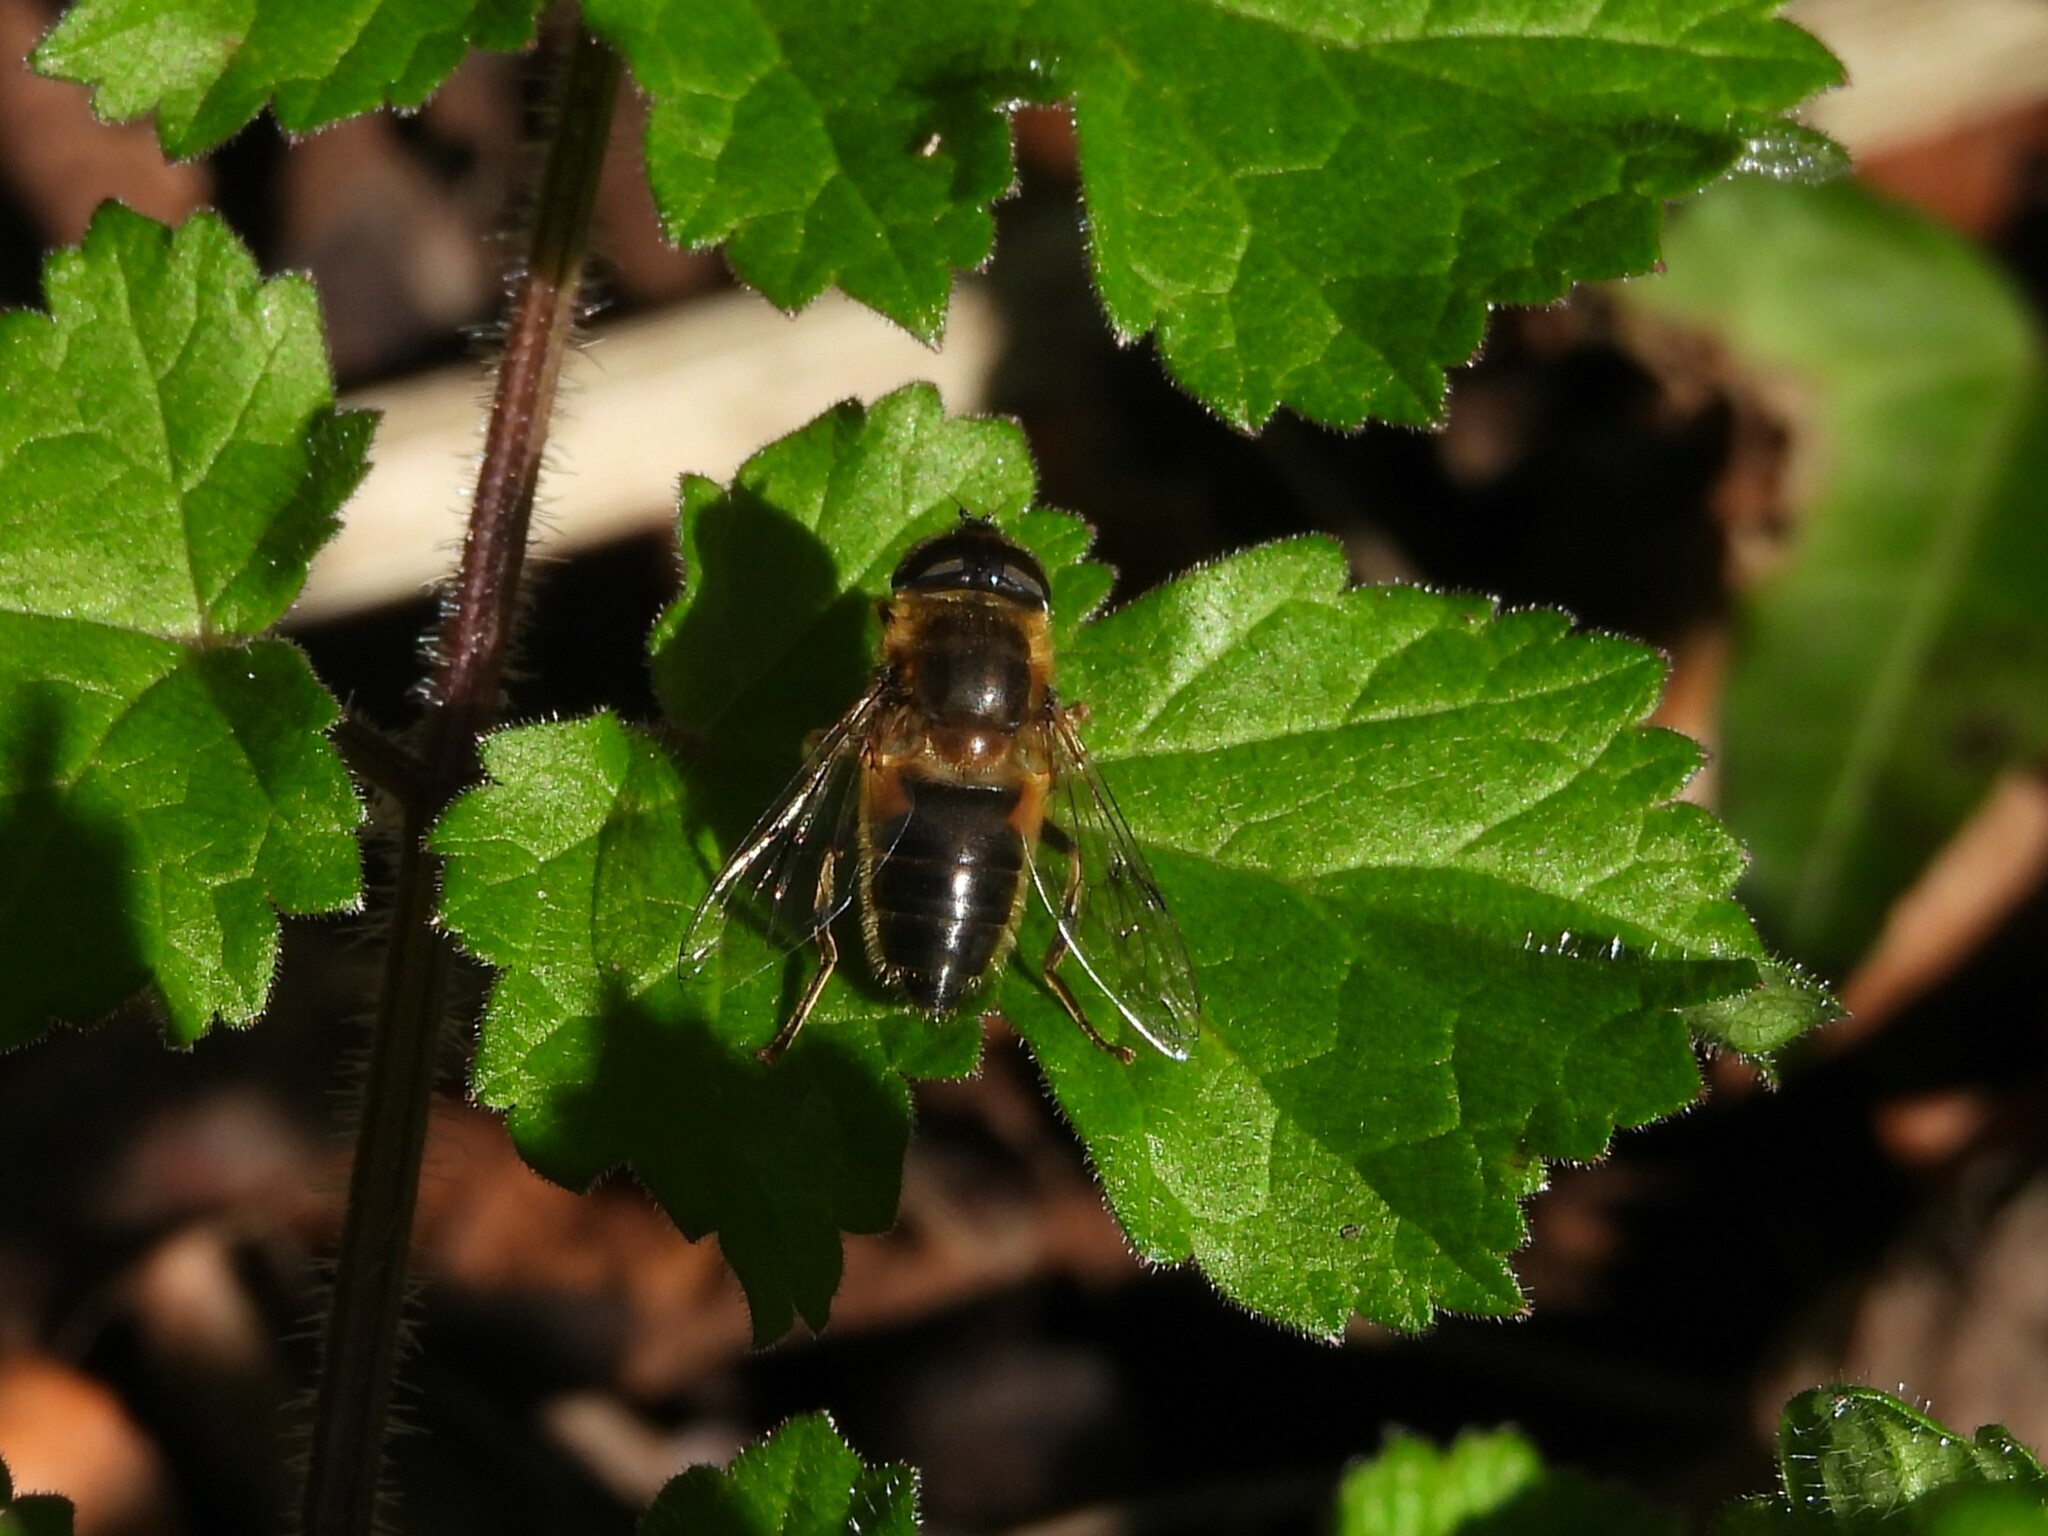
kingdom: Animalia
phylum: Arthropoda
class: Insecta
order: Diptera
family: Syrphidae
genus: Eoseristalis
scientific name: Eoseristalis
